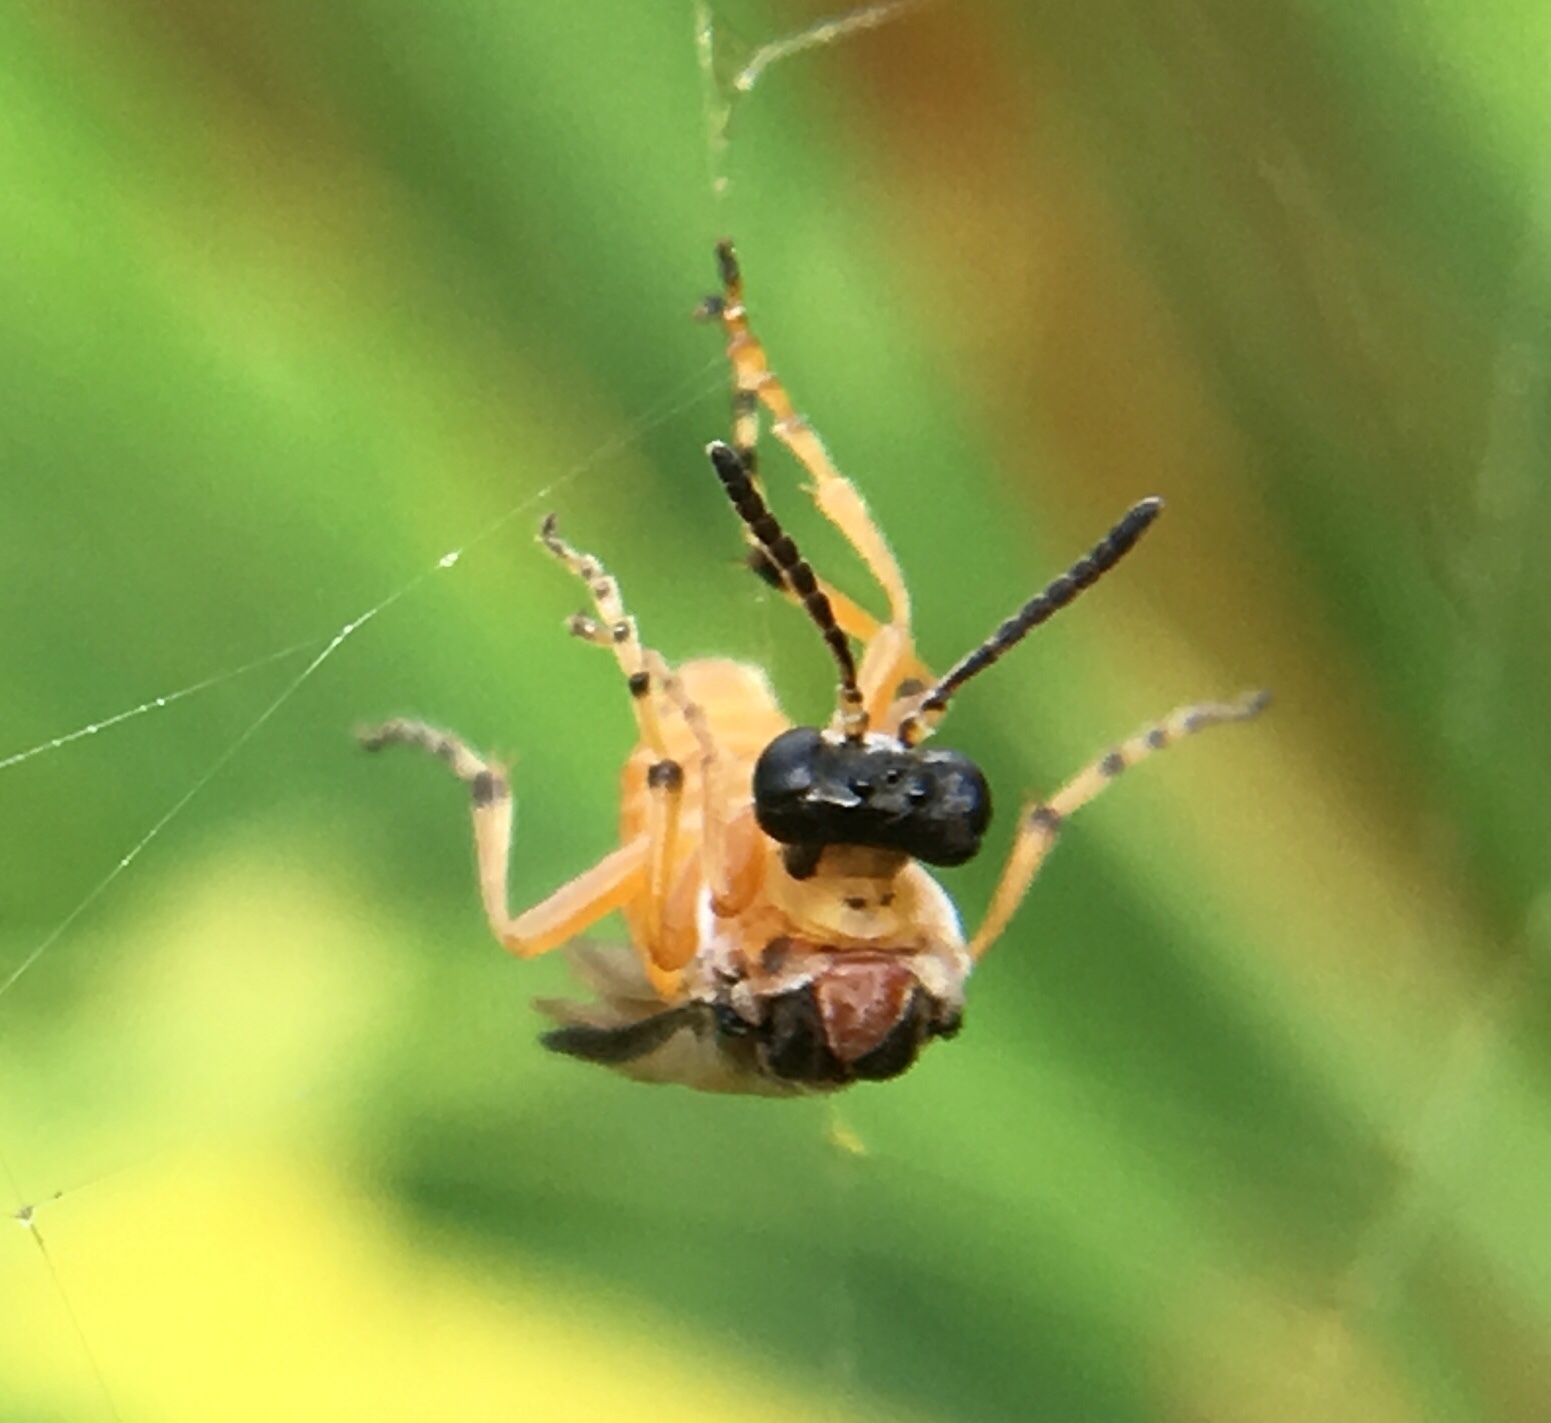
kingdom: Animalia
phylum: Arthropoda
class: Insecta
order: Hymenoptera
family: Tenthredinidae
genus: Athalia
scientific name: Athalia rosae
